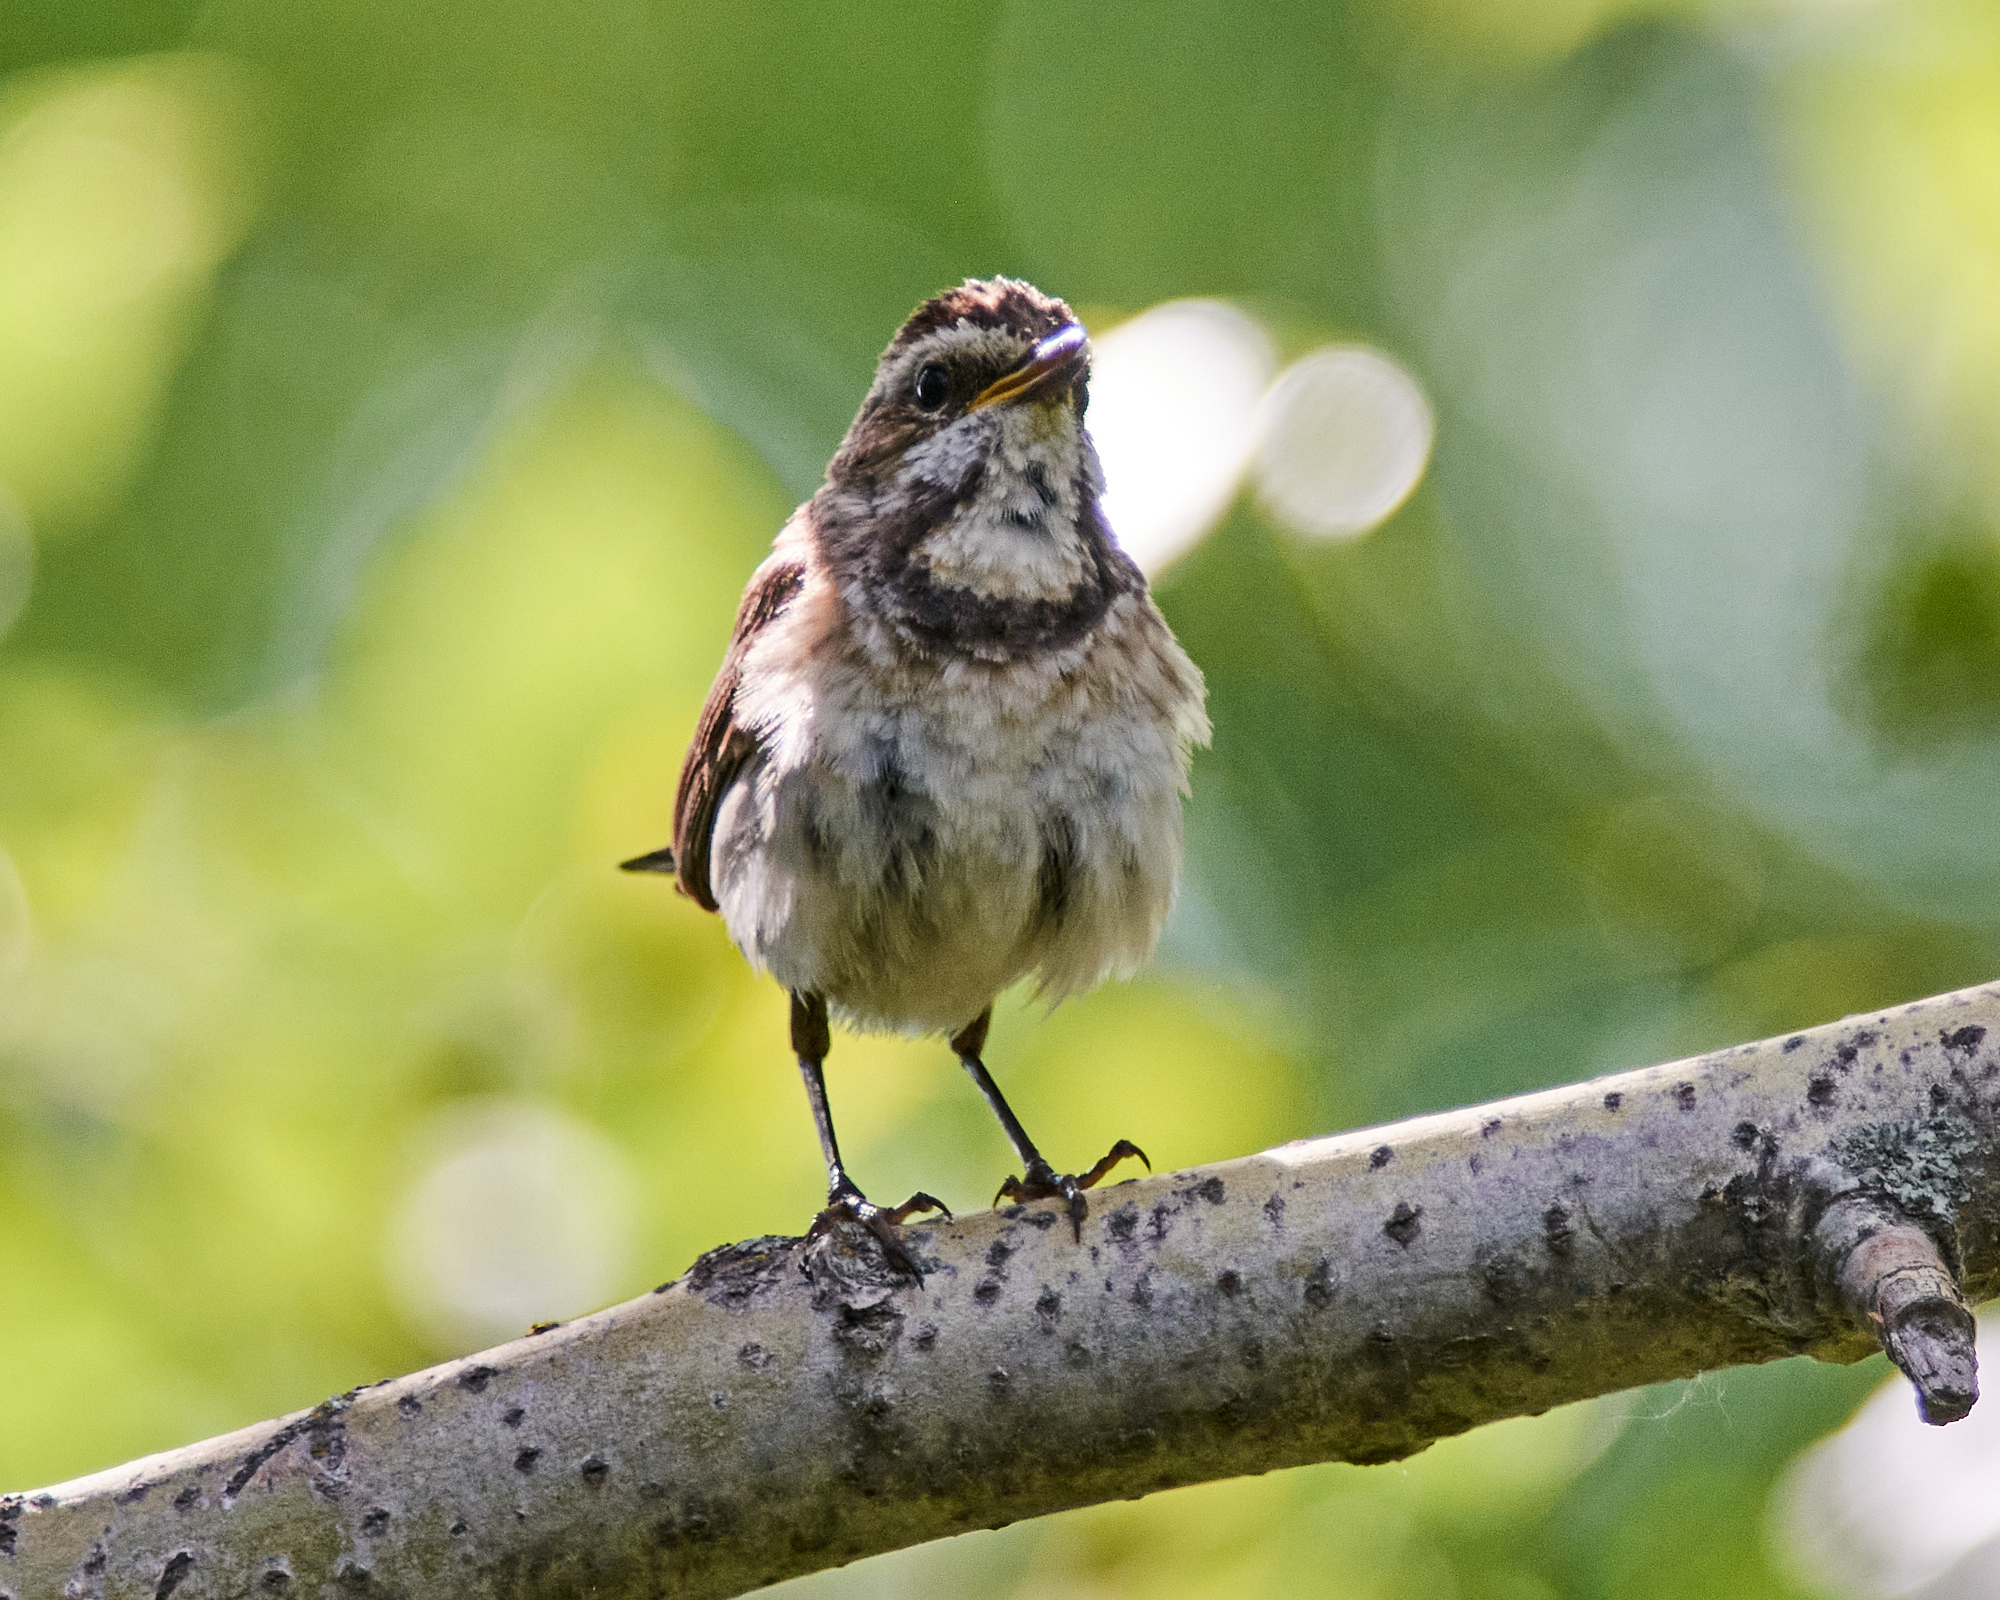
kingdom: Animalia
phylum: Chordata
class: Aves
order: Passeriformes
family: Muscicapidae
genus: Luscinia
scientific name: Luscinia svecica
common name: Bluethroat
